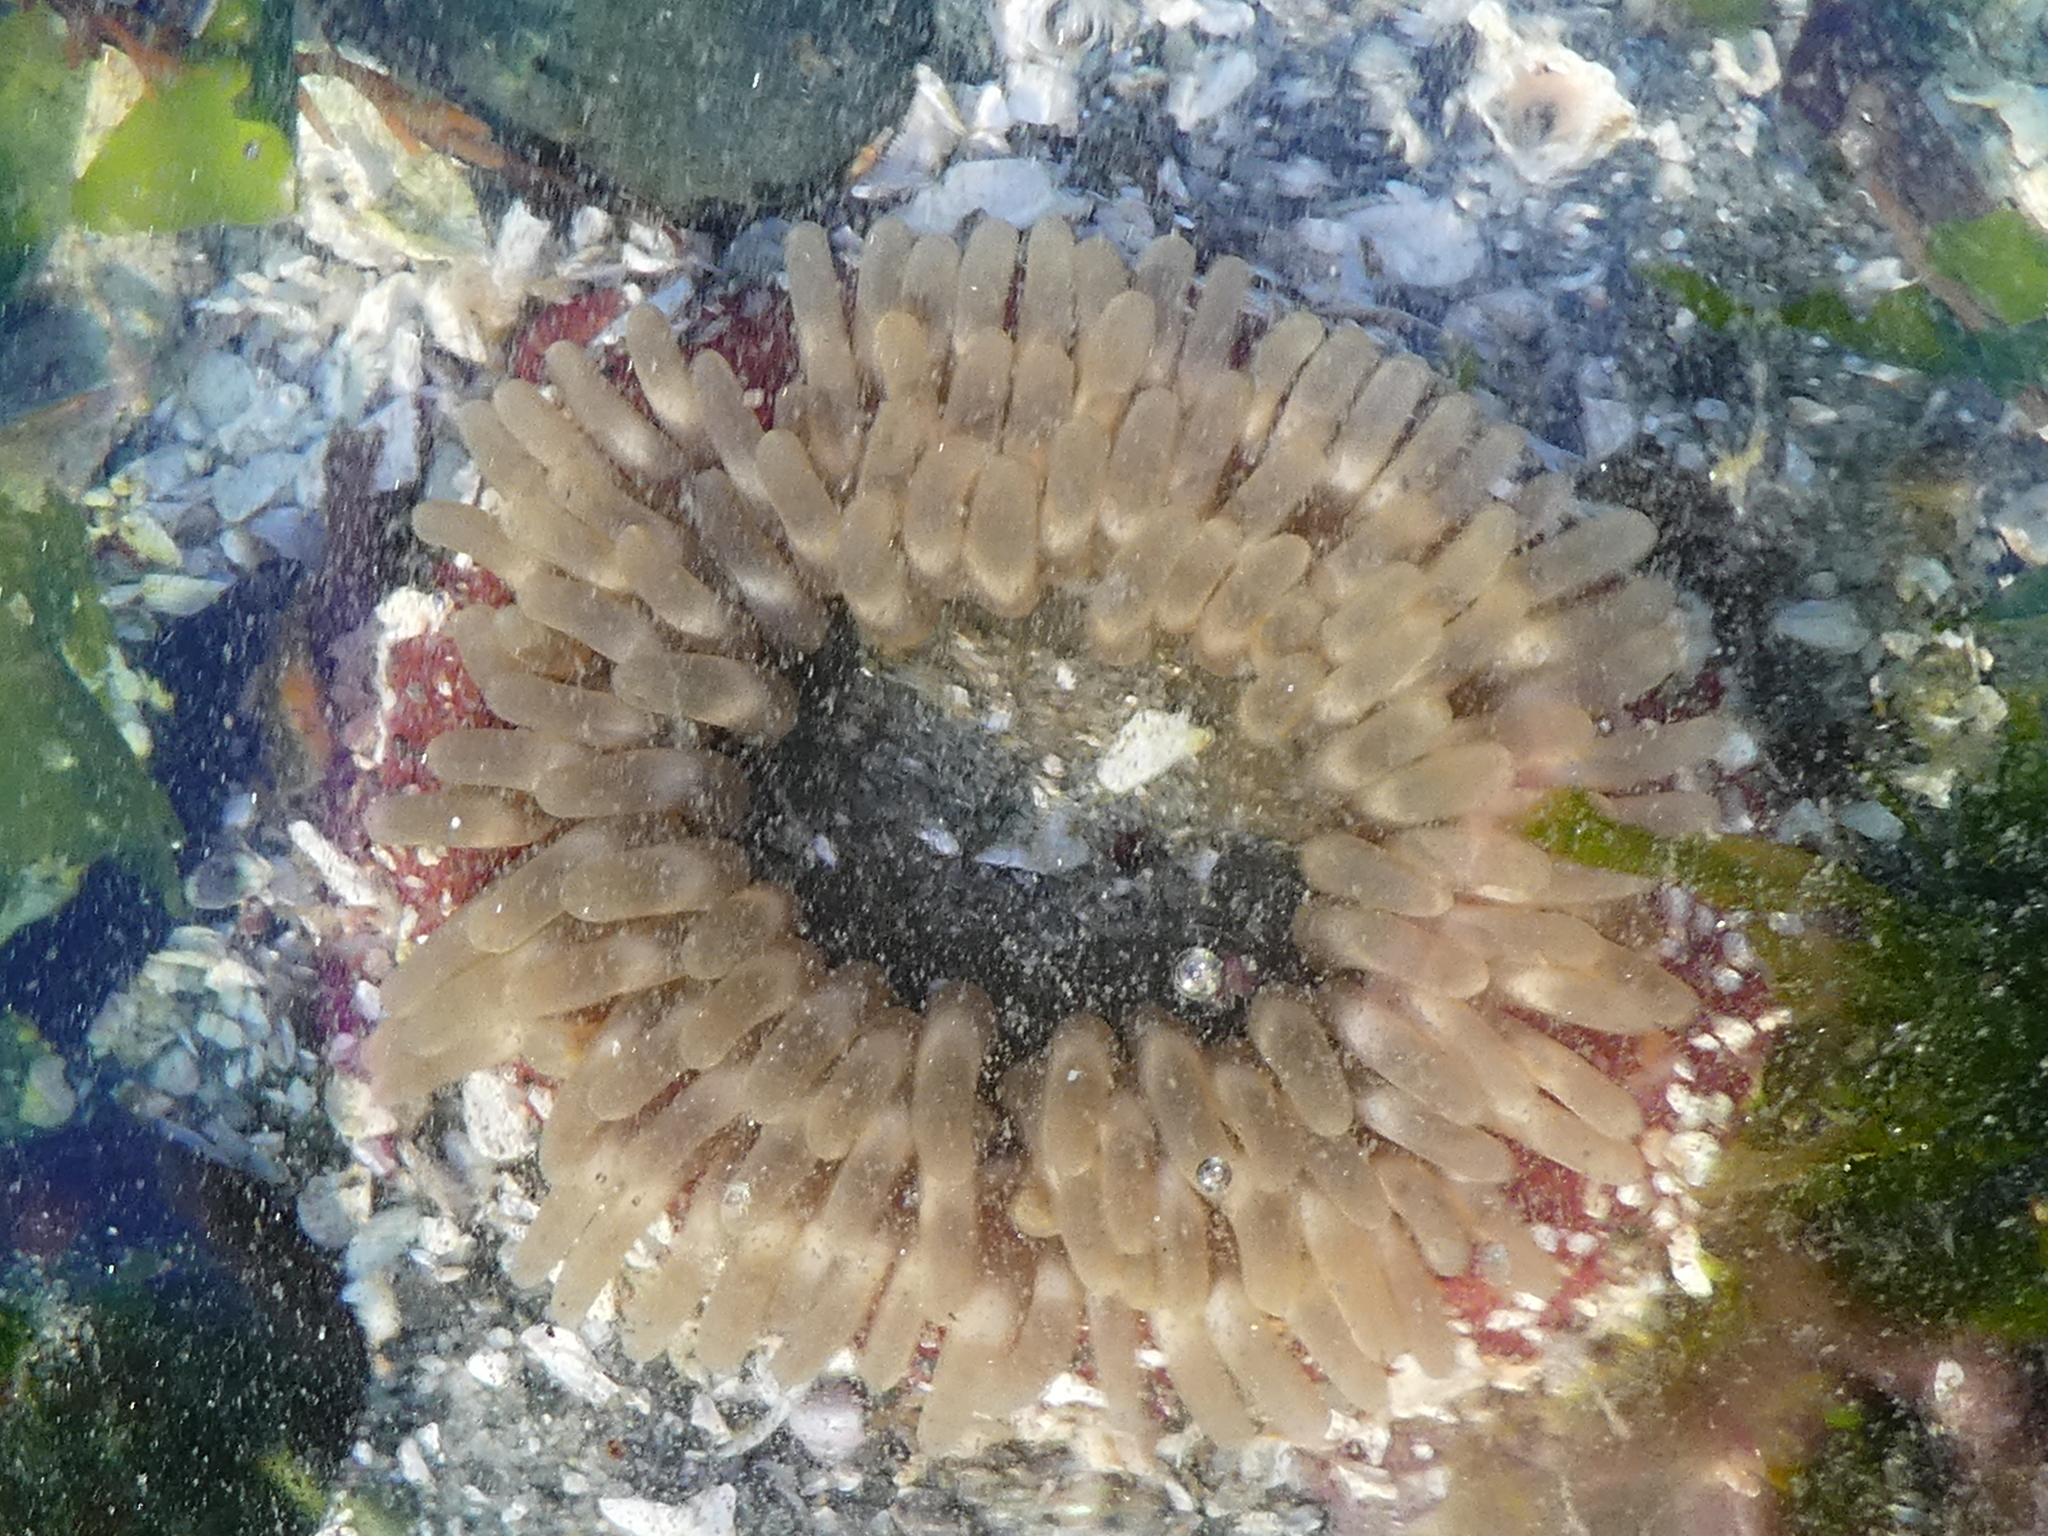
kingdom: Animalia
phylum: Cnidaria
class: Anthozoa
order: Actiniaria
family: Actiniidae
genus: Urticina
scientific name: Urticina clandestina
